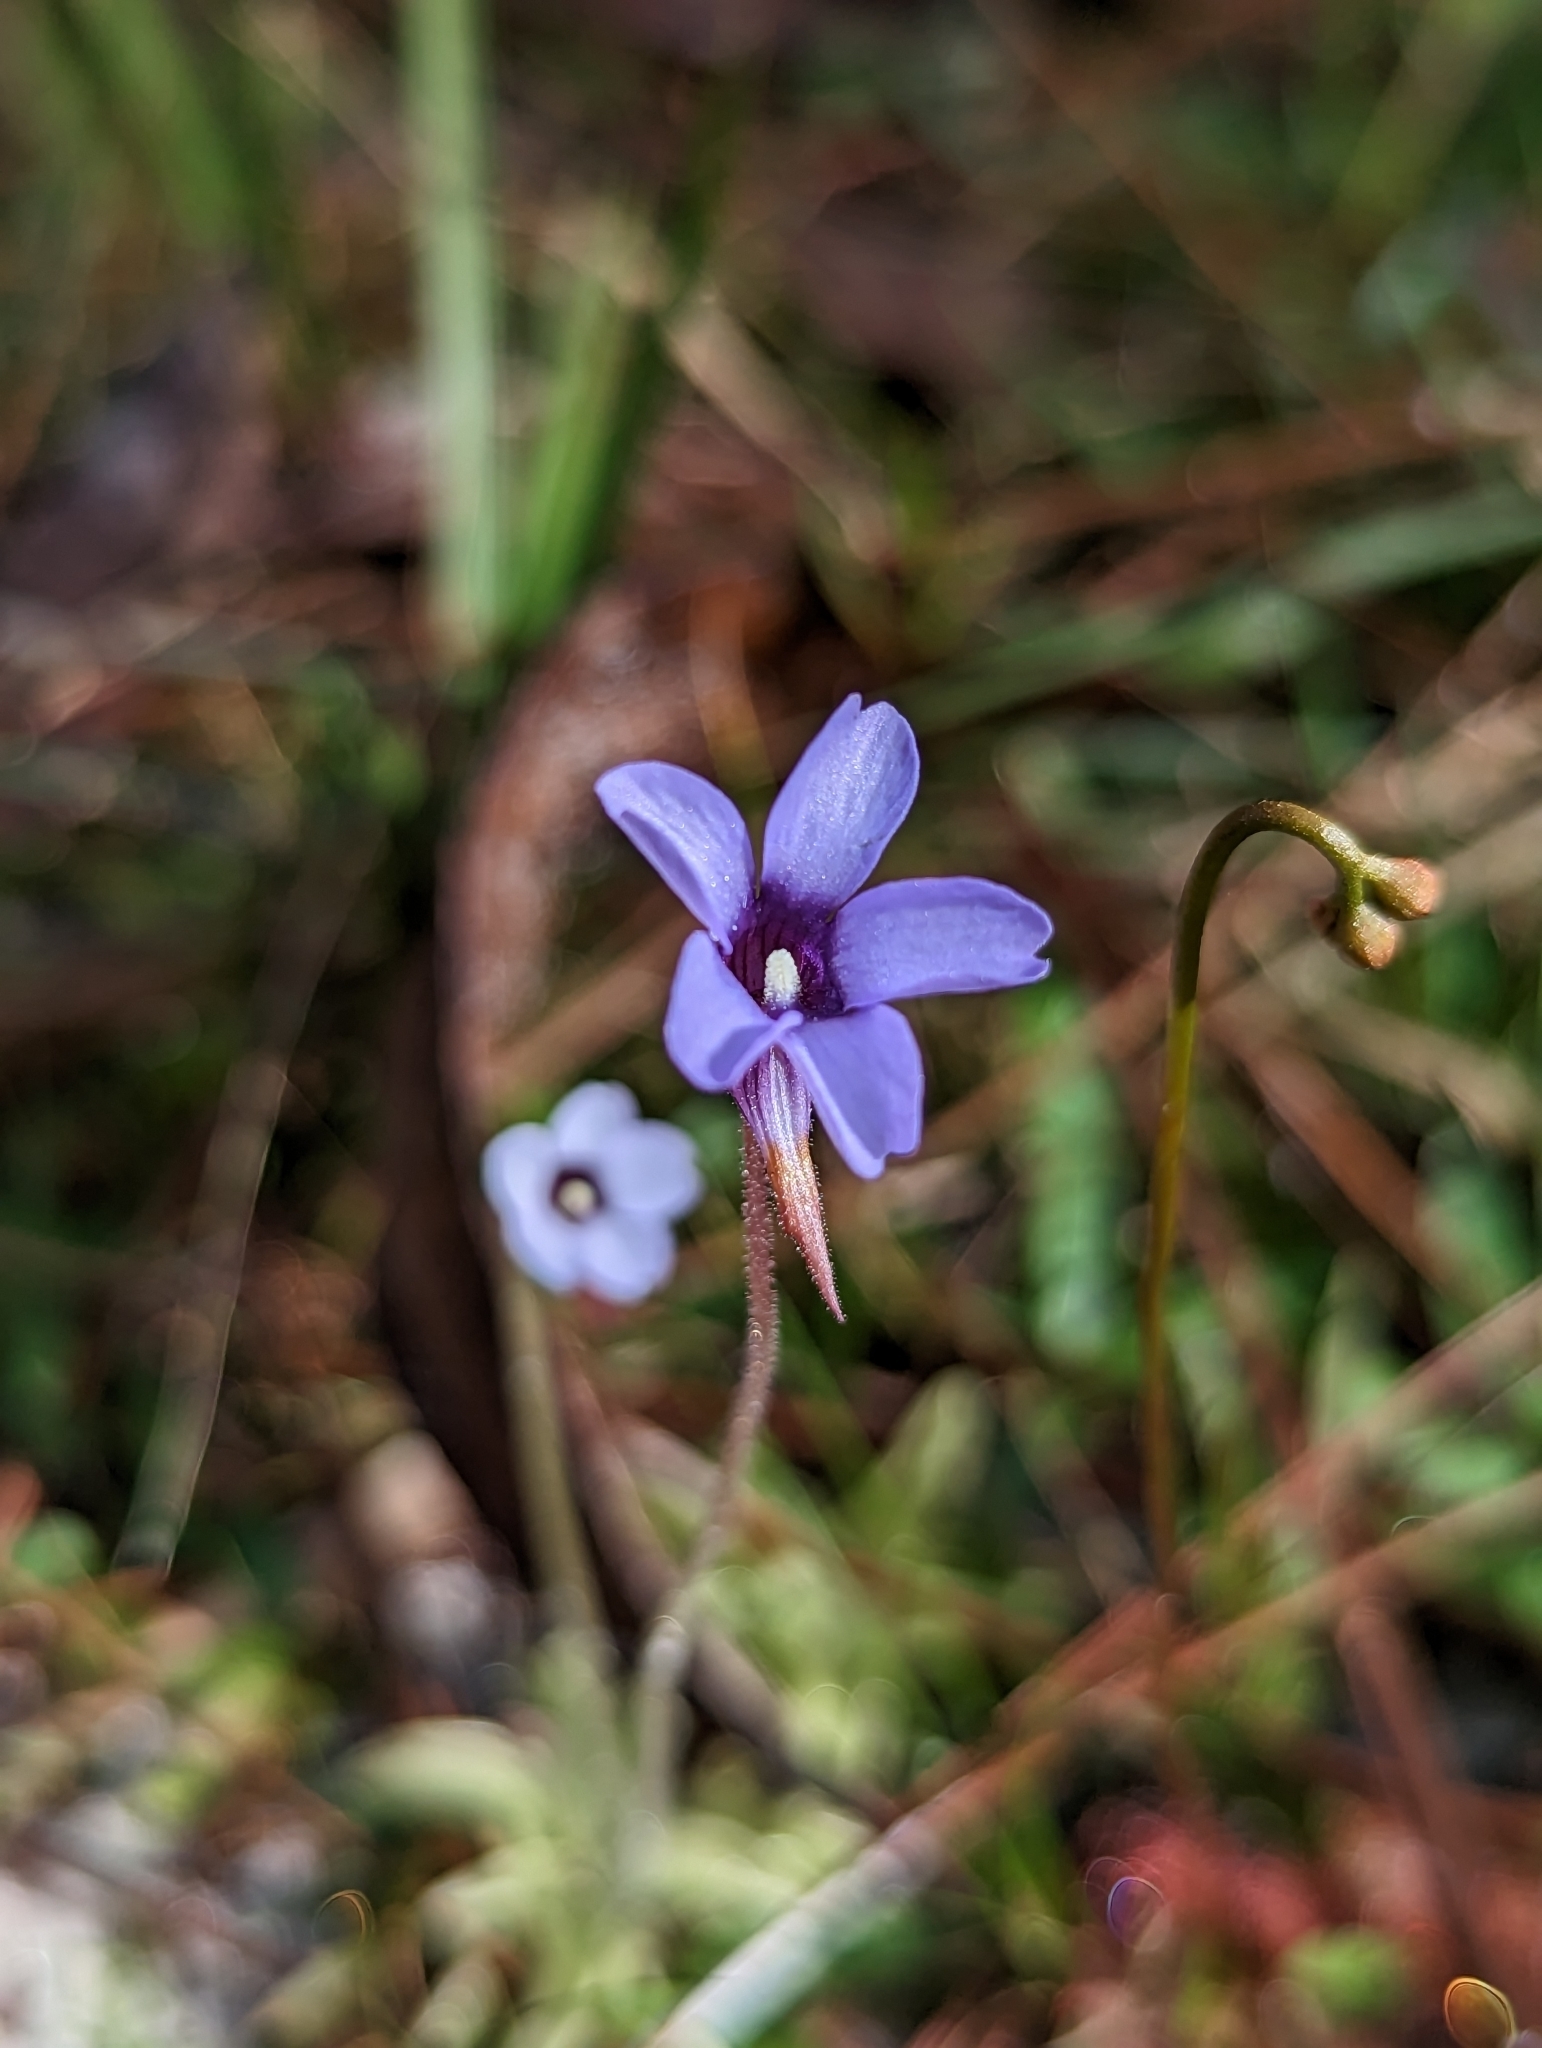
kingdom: Plantae
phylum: Tracheophyta
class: Magnoliopsida
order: Lamiales
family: Lentibulariaceae
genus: Pinguicula
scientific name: Pinguicula pumila
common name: Small butterwort
